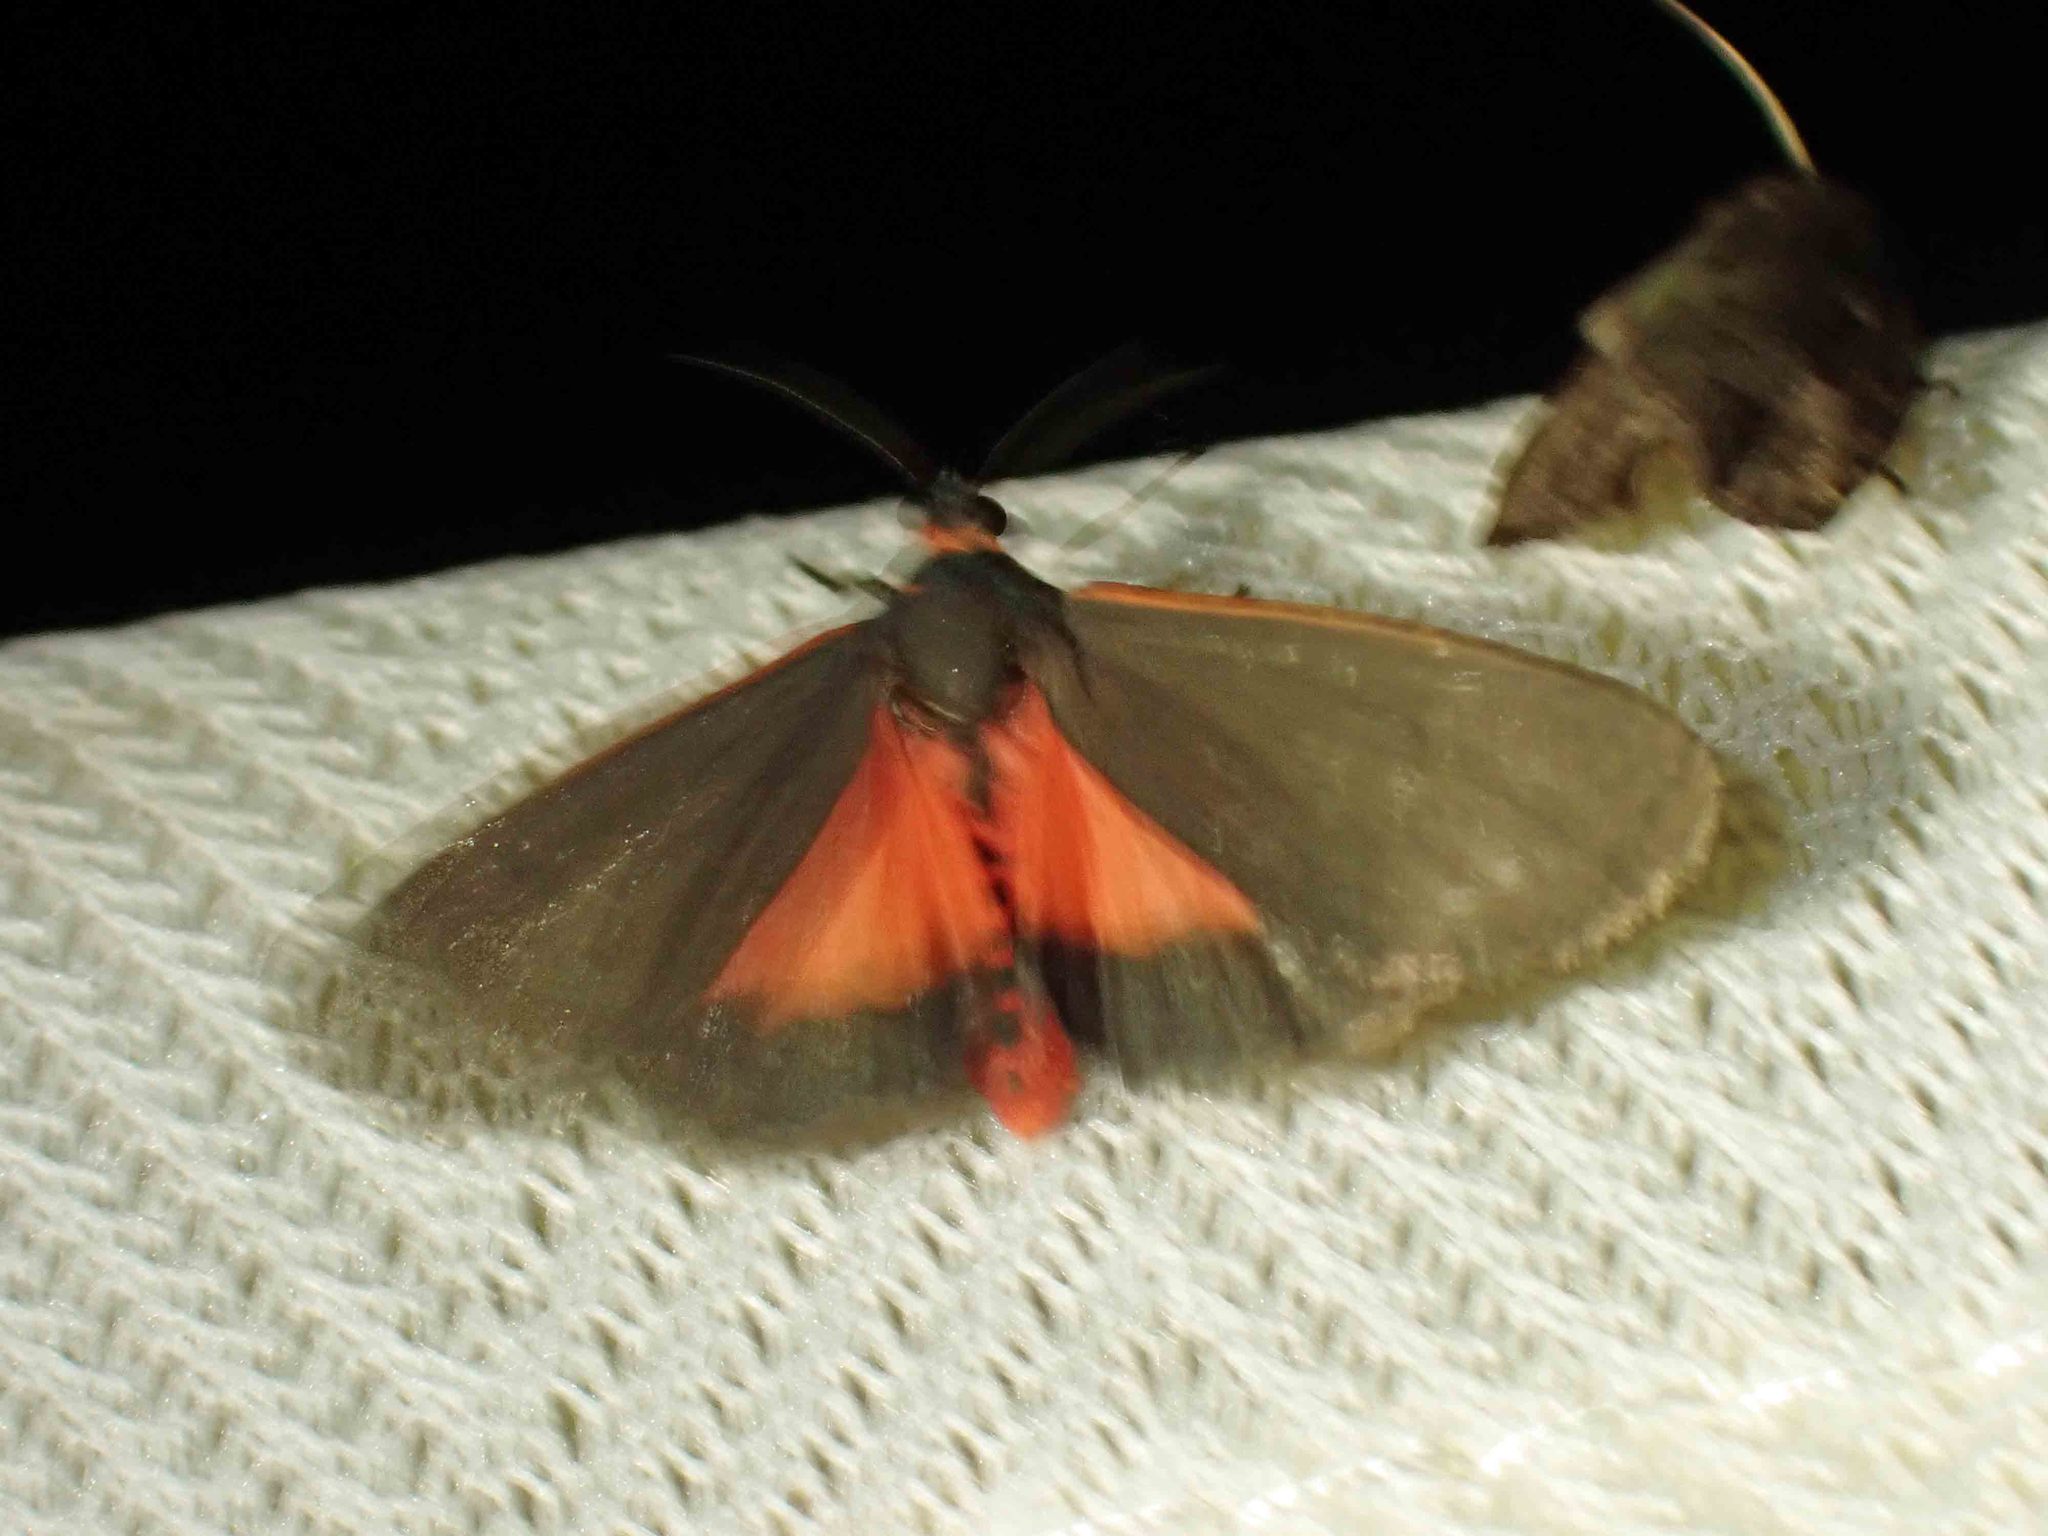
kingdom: Animalia
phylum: Arthropoda
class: Insecta
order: Lepidoptera
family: Erebidae
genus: Virbia
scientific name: Virbia laeta
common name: Joyful holomelina moth
